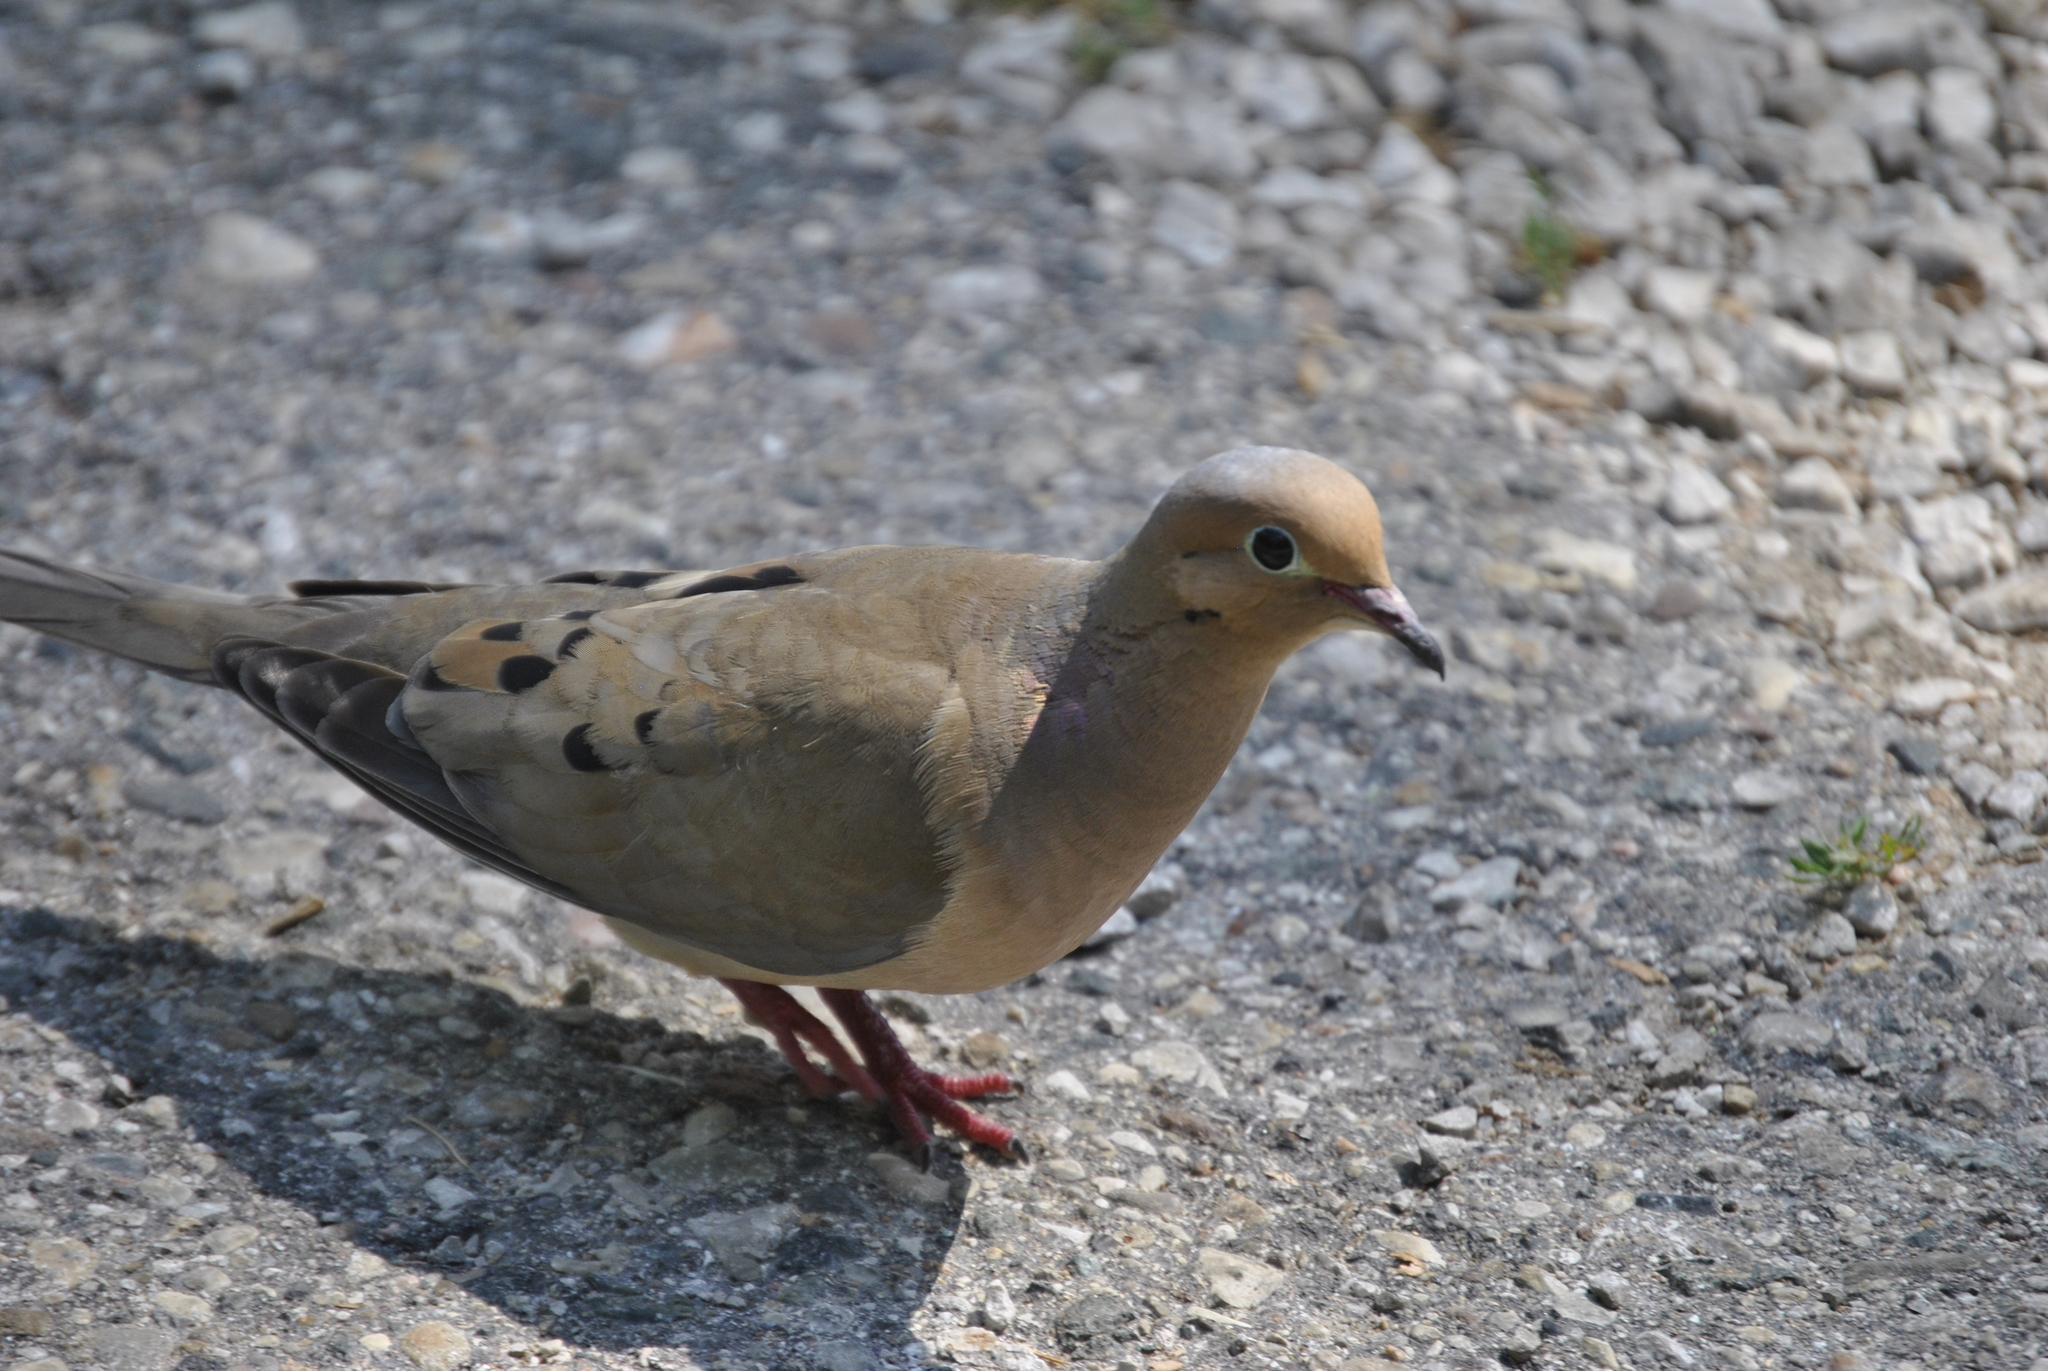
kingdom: Animalia
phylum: Chordata
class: Aves
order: Columbiformes
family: Columbidae
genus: Zenaida
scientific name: Zenaida macroura
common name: Mourning dove
